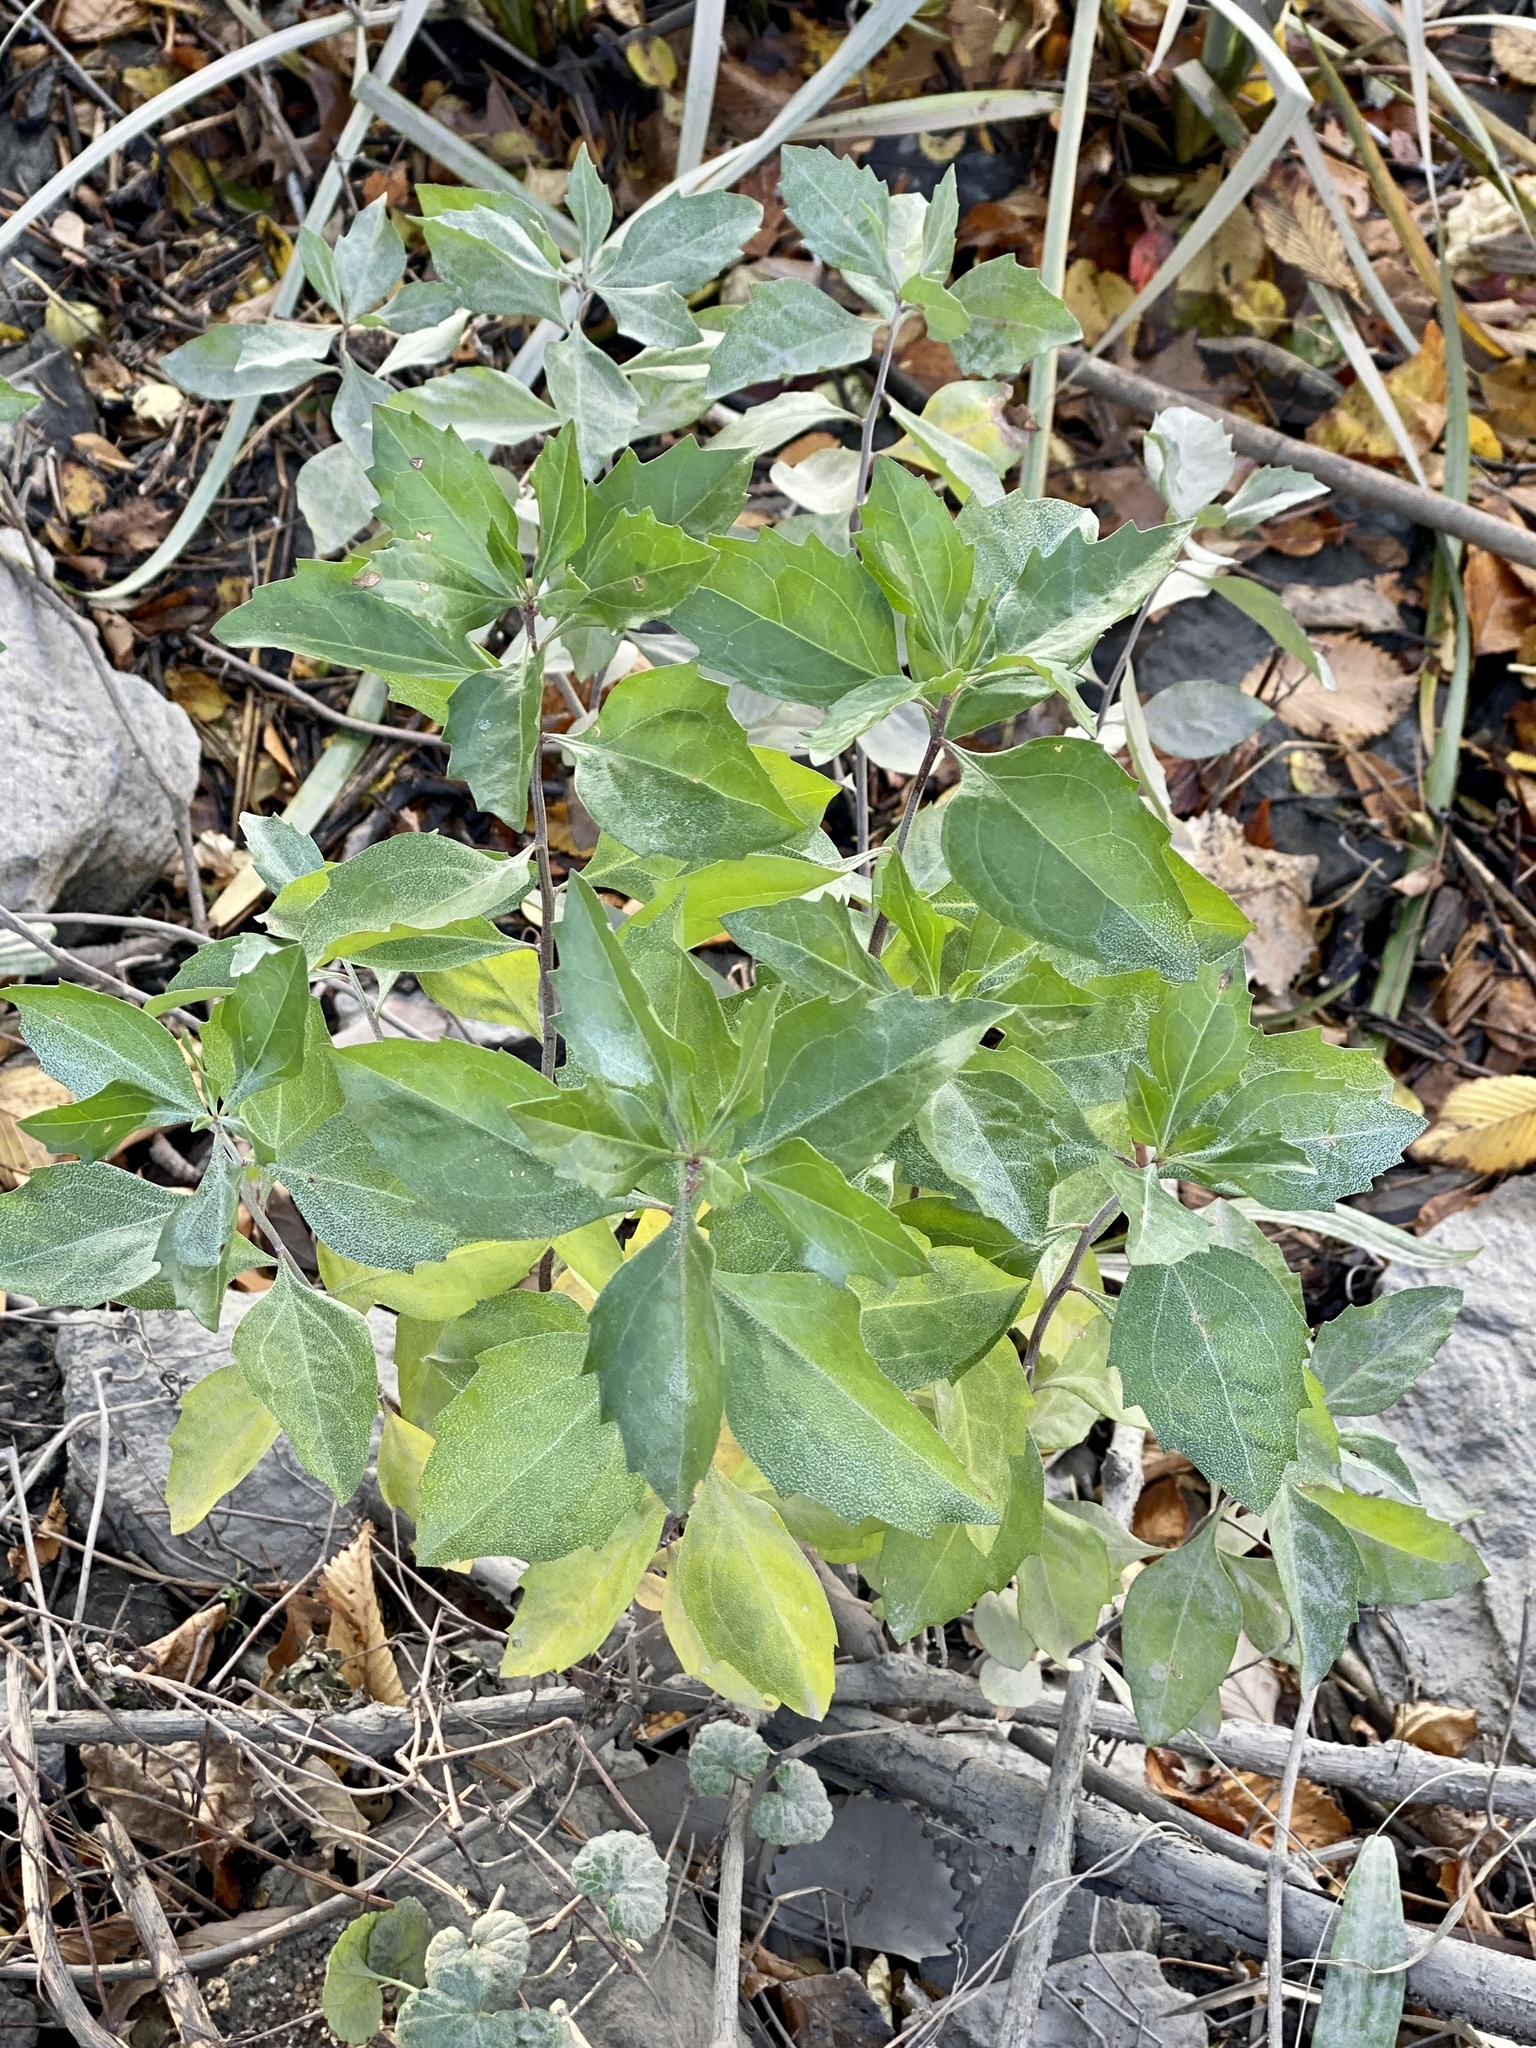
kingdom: Plantae
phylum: Tracheophyta
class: Magnoliopsida
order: Asterales
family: Asteraceae
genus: Baccharis
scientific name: Baccharis halimifolia
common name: Eastern baccharis
